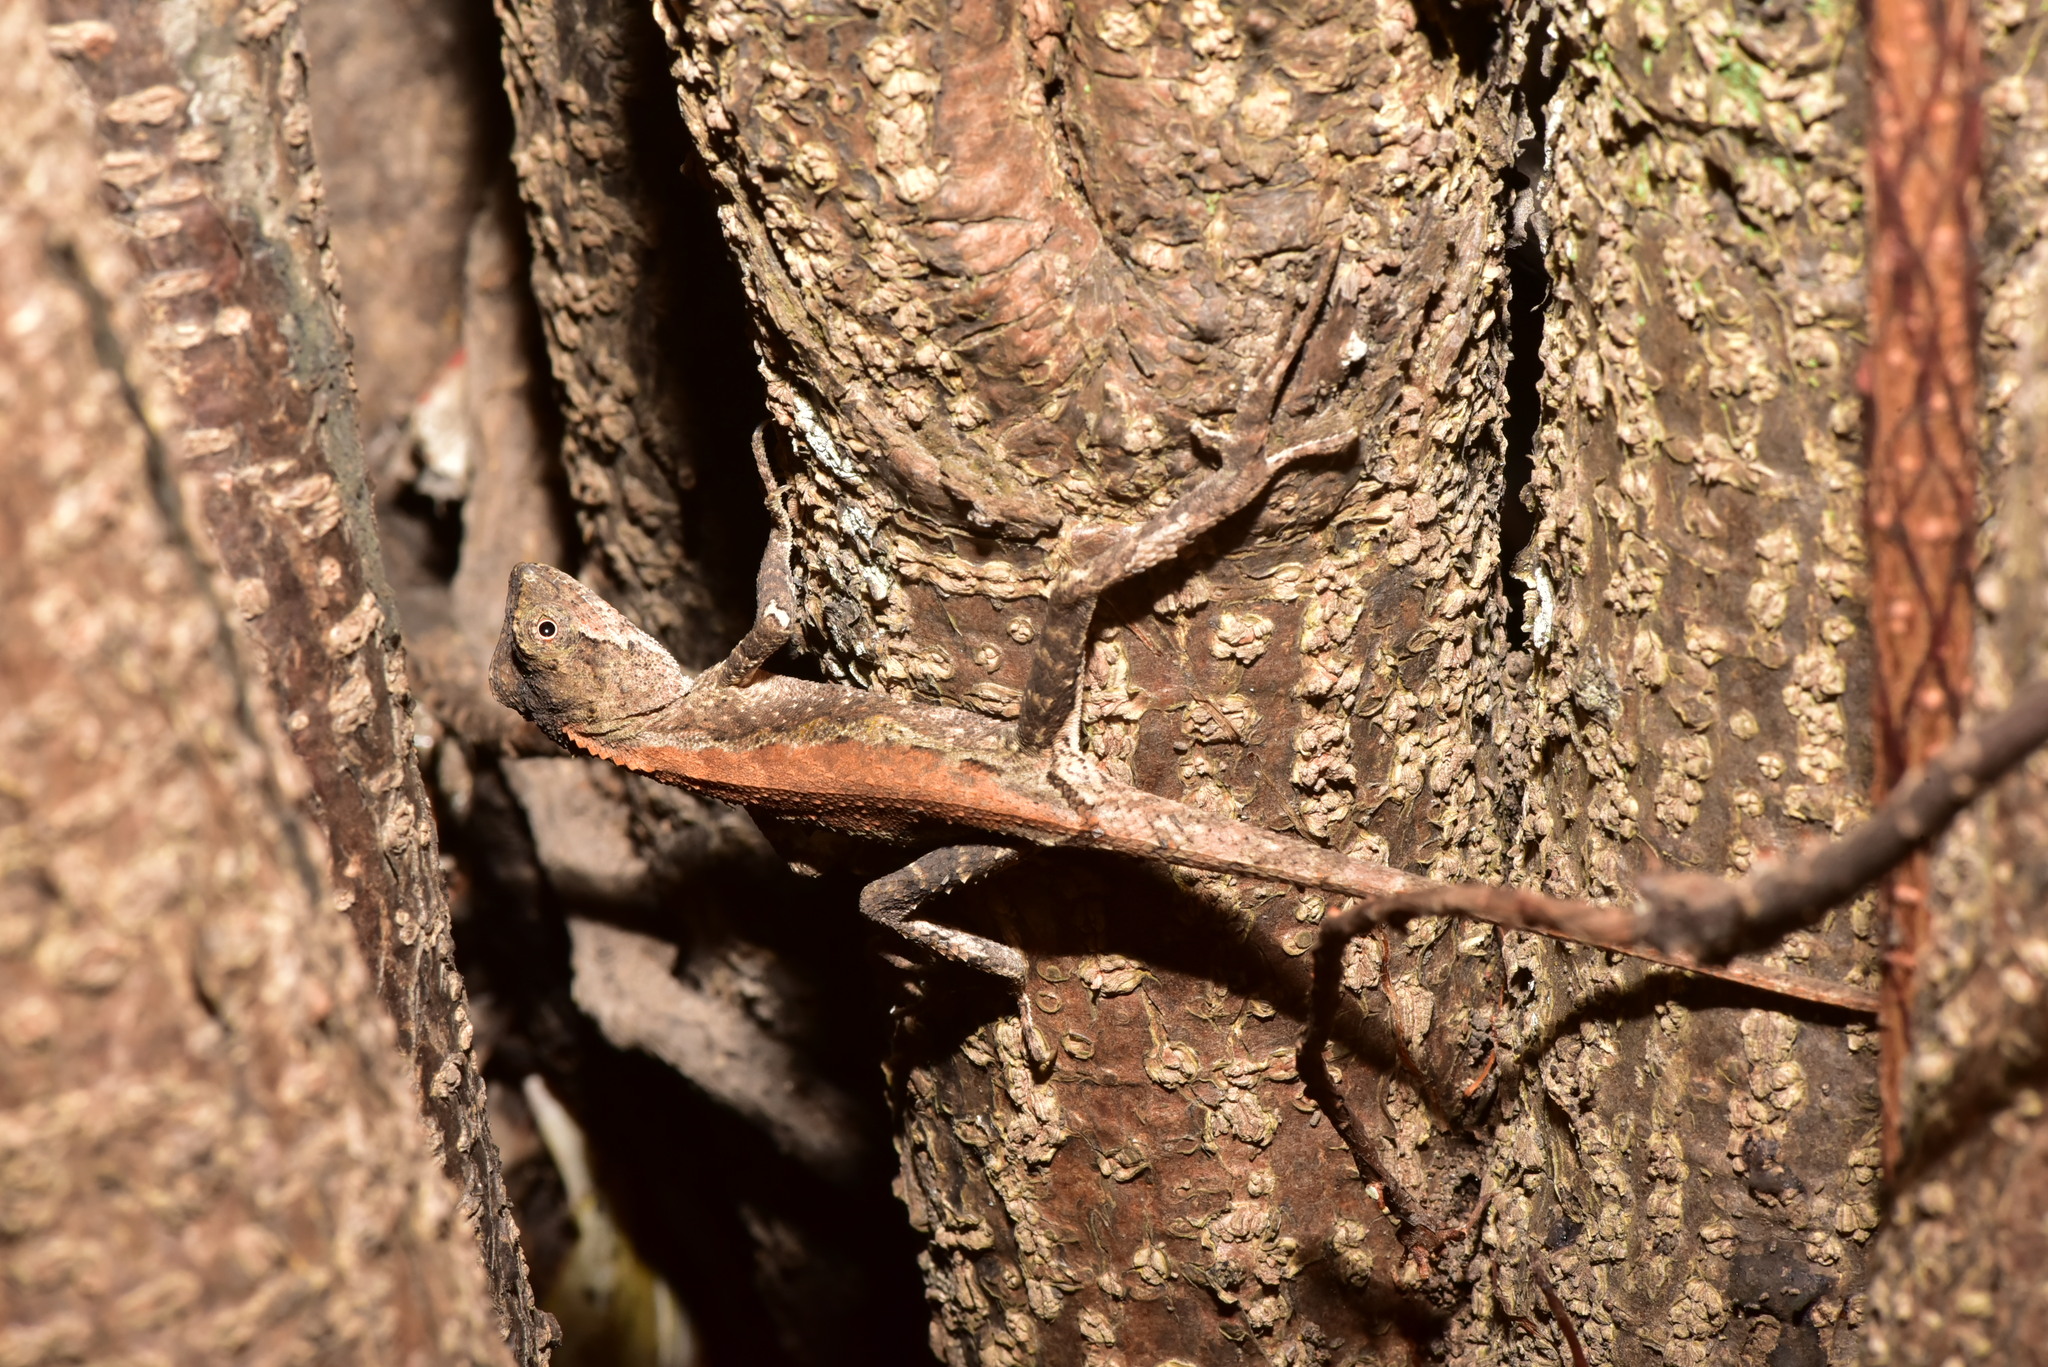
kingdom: Animalia
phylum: Chordata
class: Squamata
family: Agamidae
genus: Diploderma
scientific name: Diploderma swinhonis
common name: Taiwan japalure
